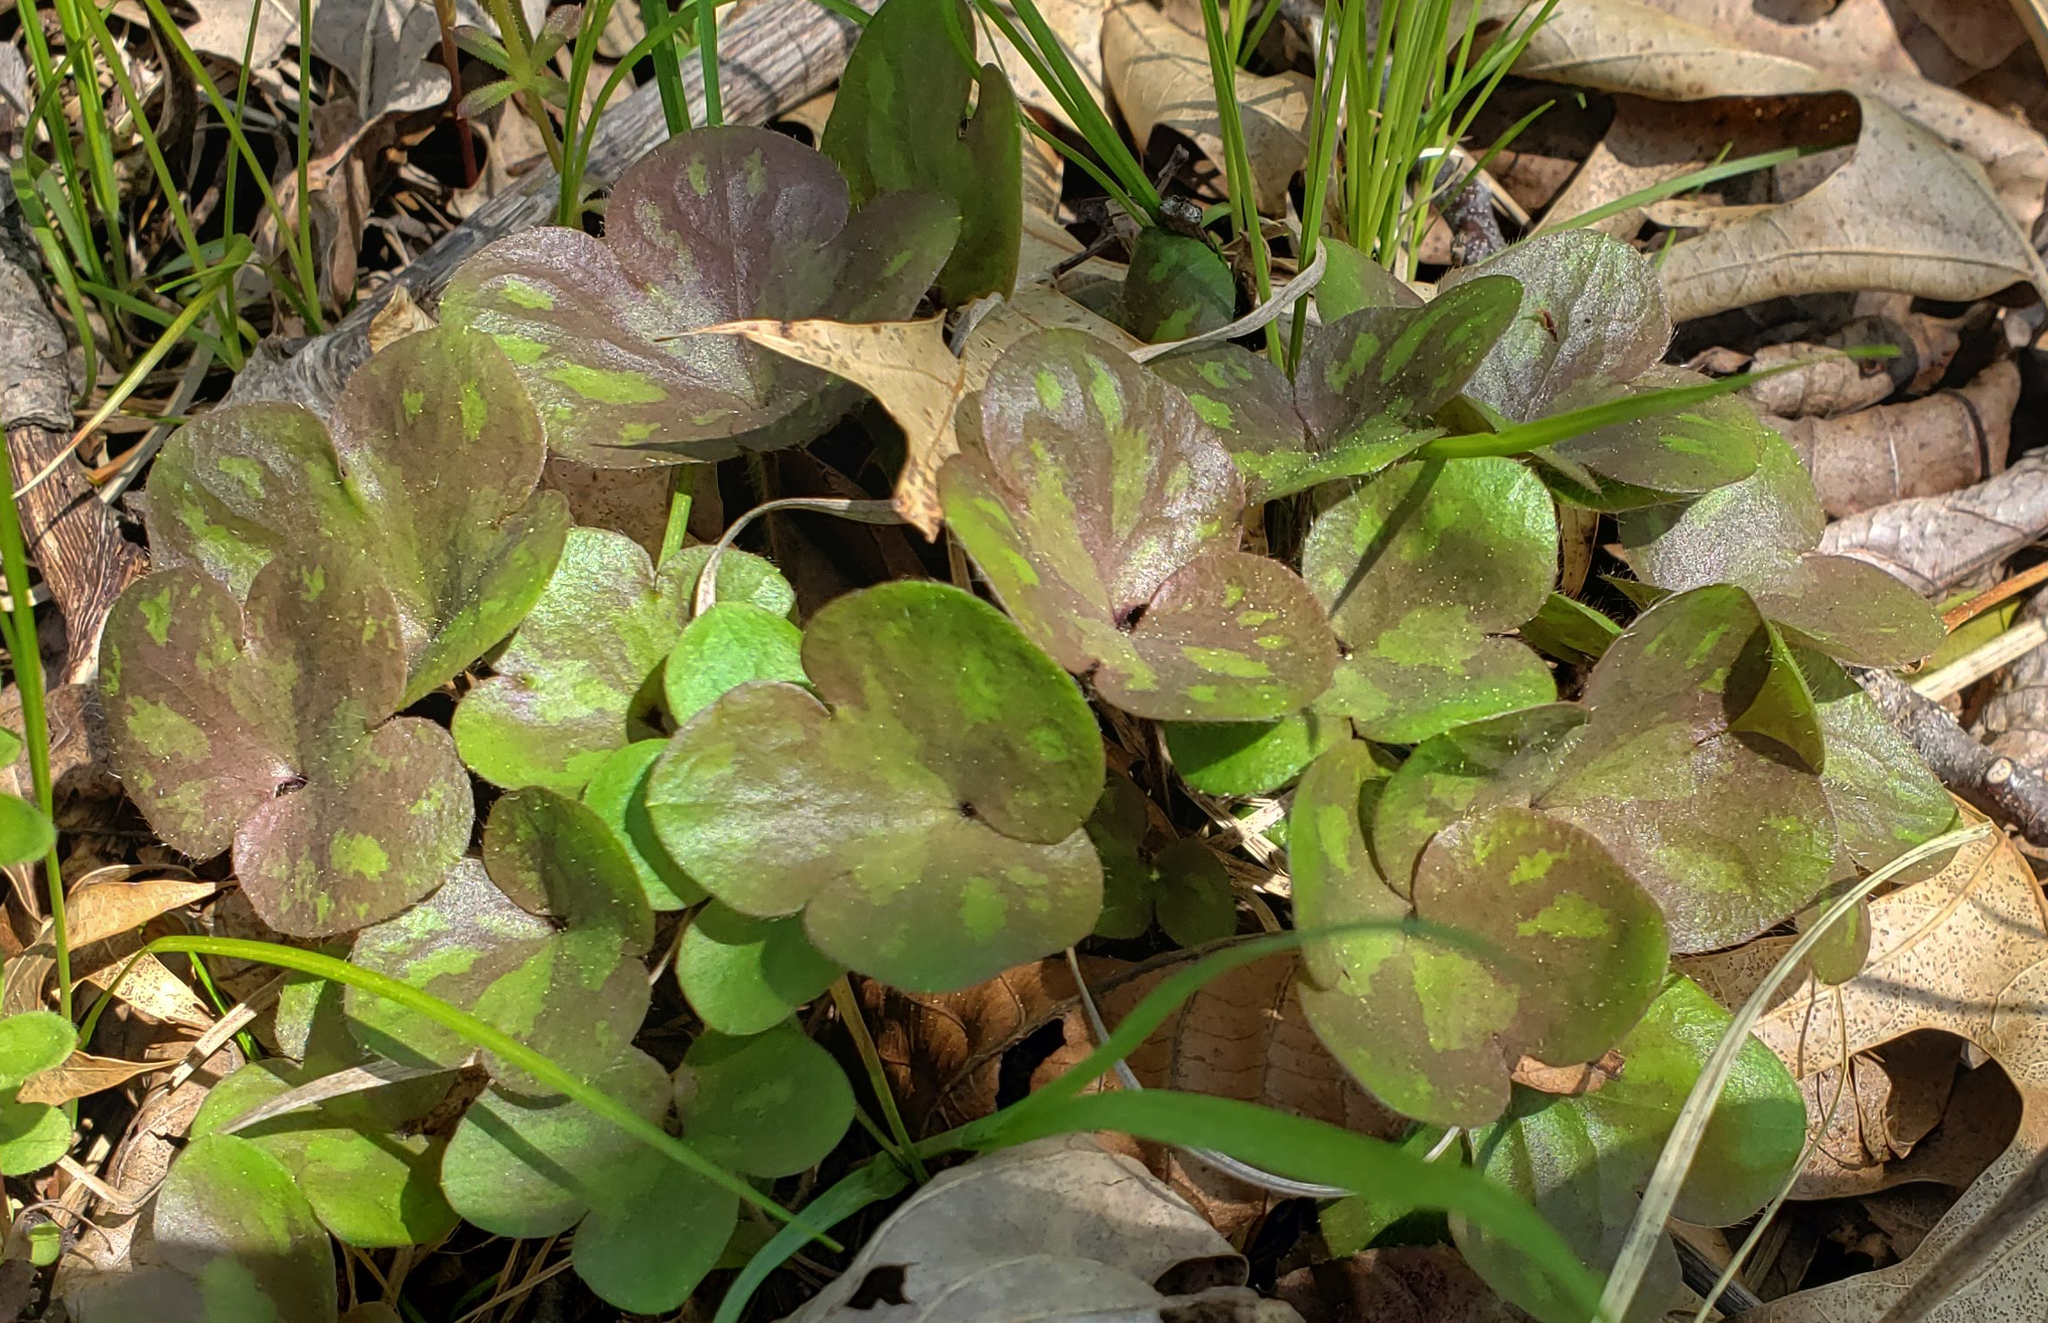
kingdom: Plantae
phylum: Tracheophyta
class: Magnoliopsida
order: Ranunculales
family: Ranunculaceae
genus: Hepatica
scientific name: Hepatica americana
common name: American hepatica
